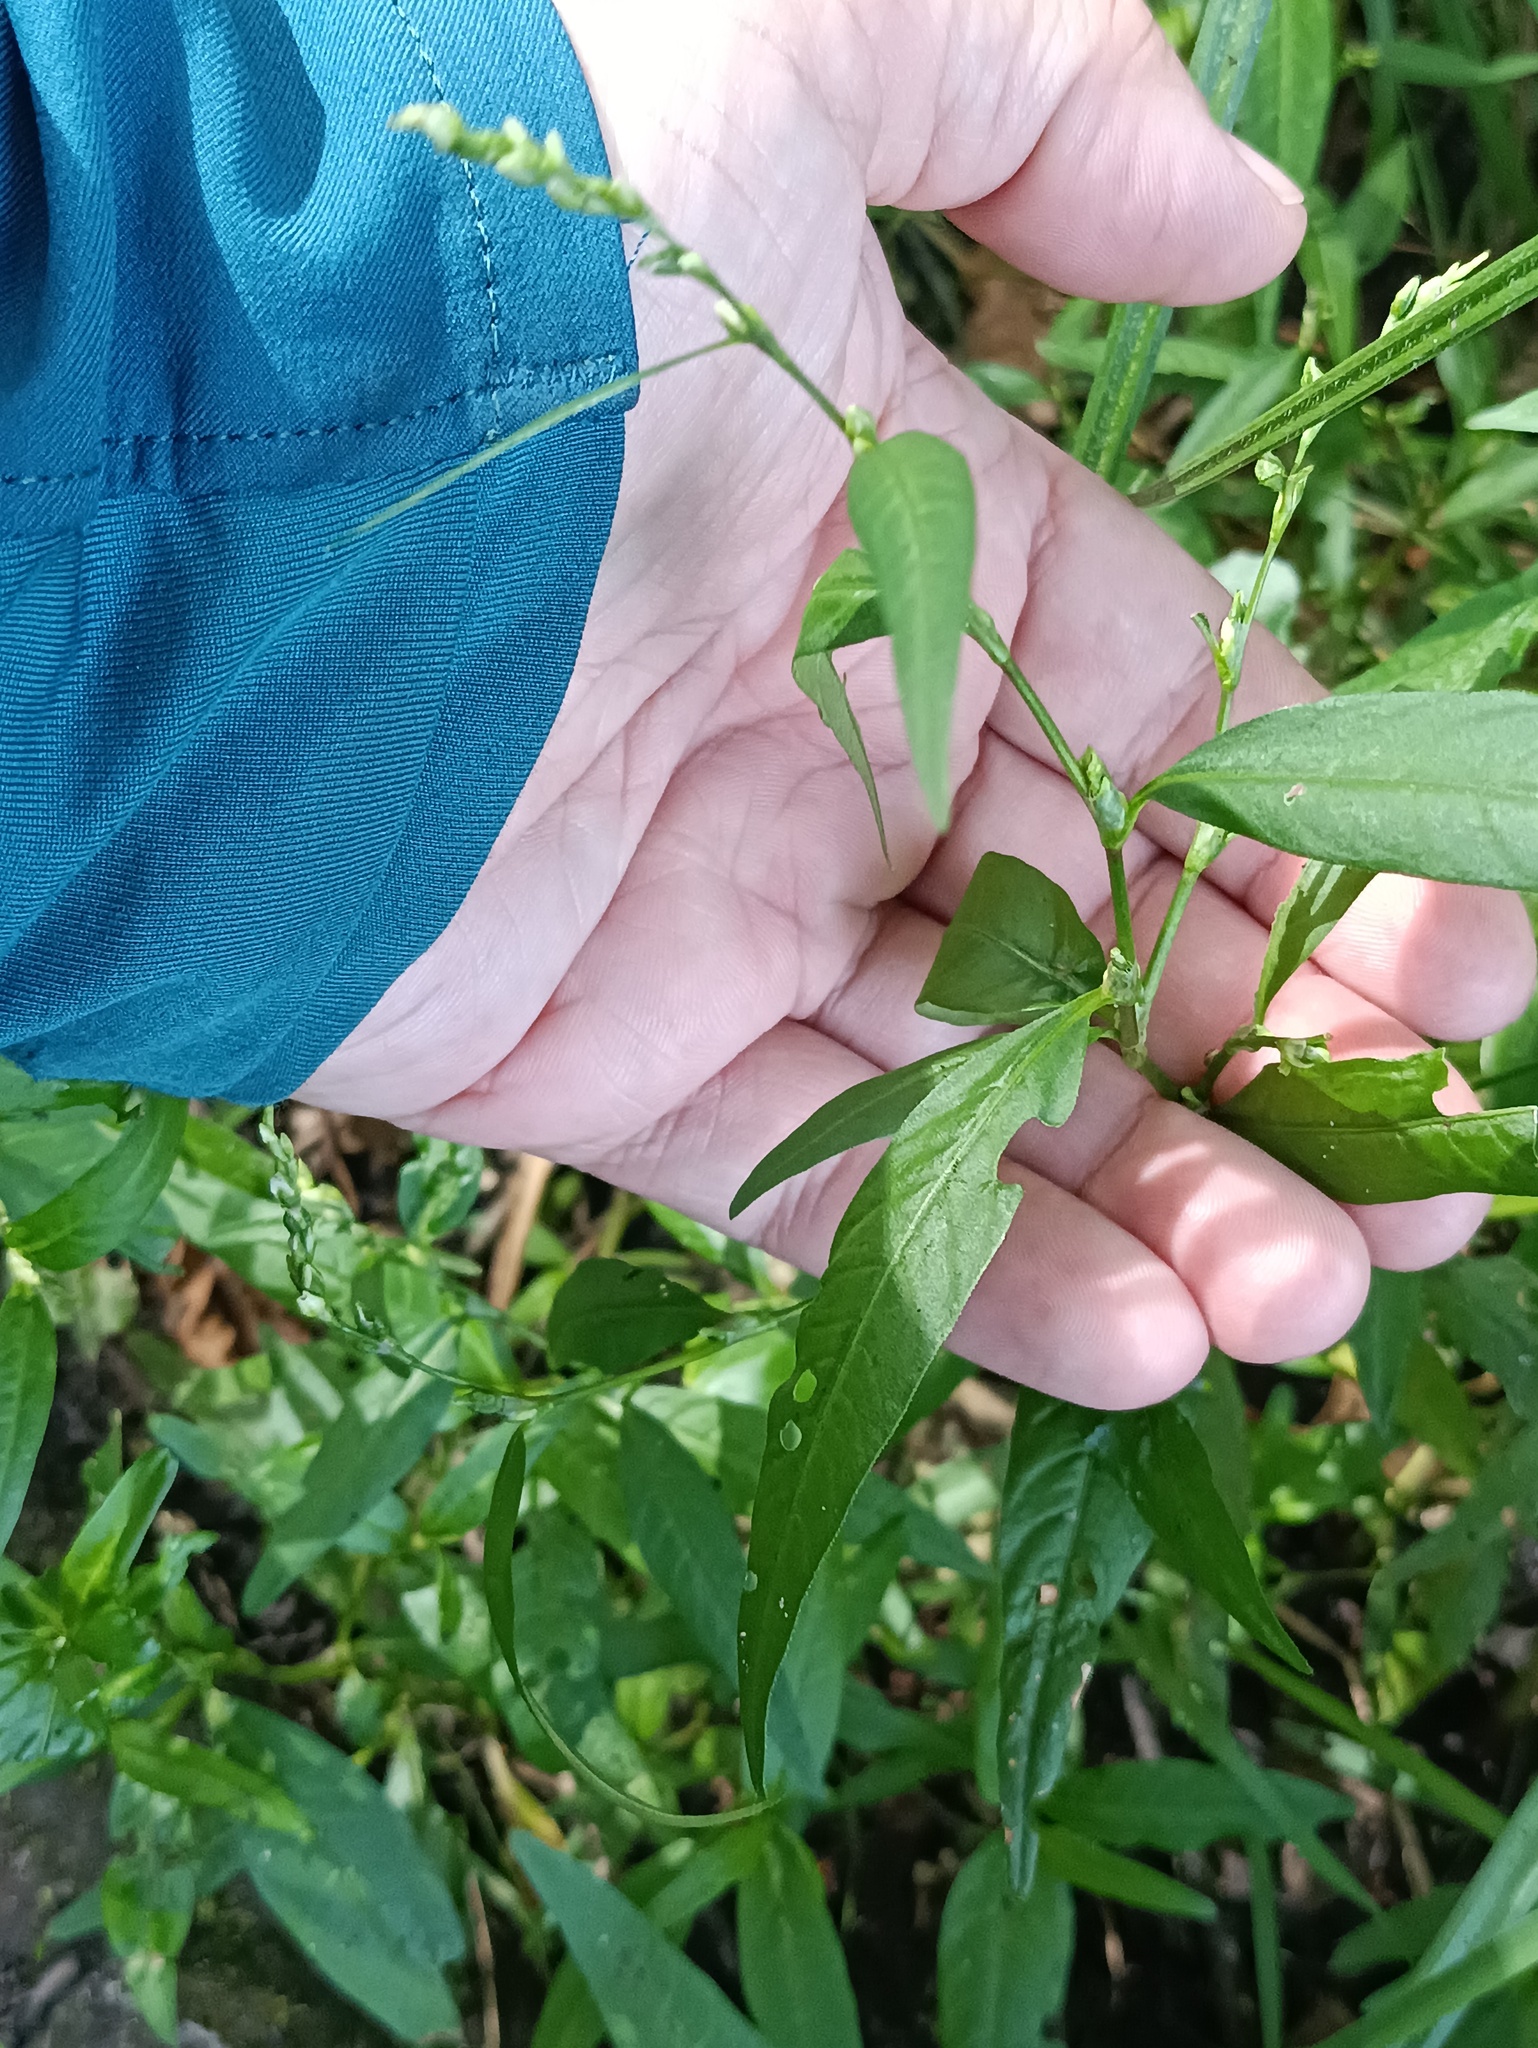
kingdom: Plantae
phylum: Tracheophyta
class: Magnoliopsida
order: Caryophyllales
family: Polygonaceae
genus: Persicaria
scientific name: Persicaria hydropiper
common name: Water-pepper
